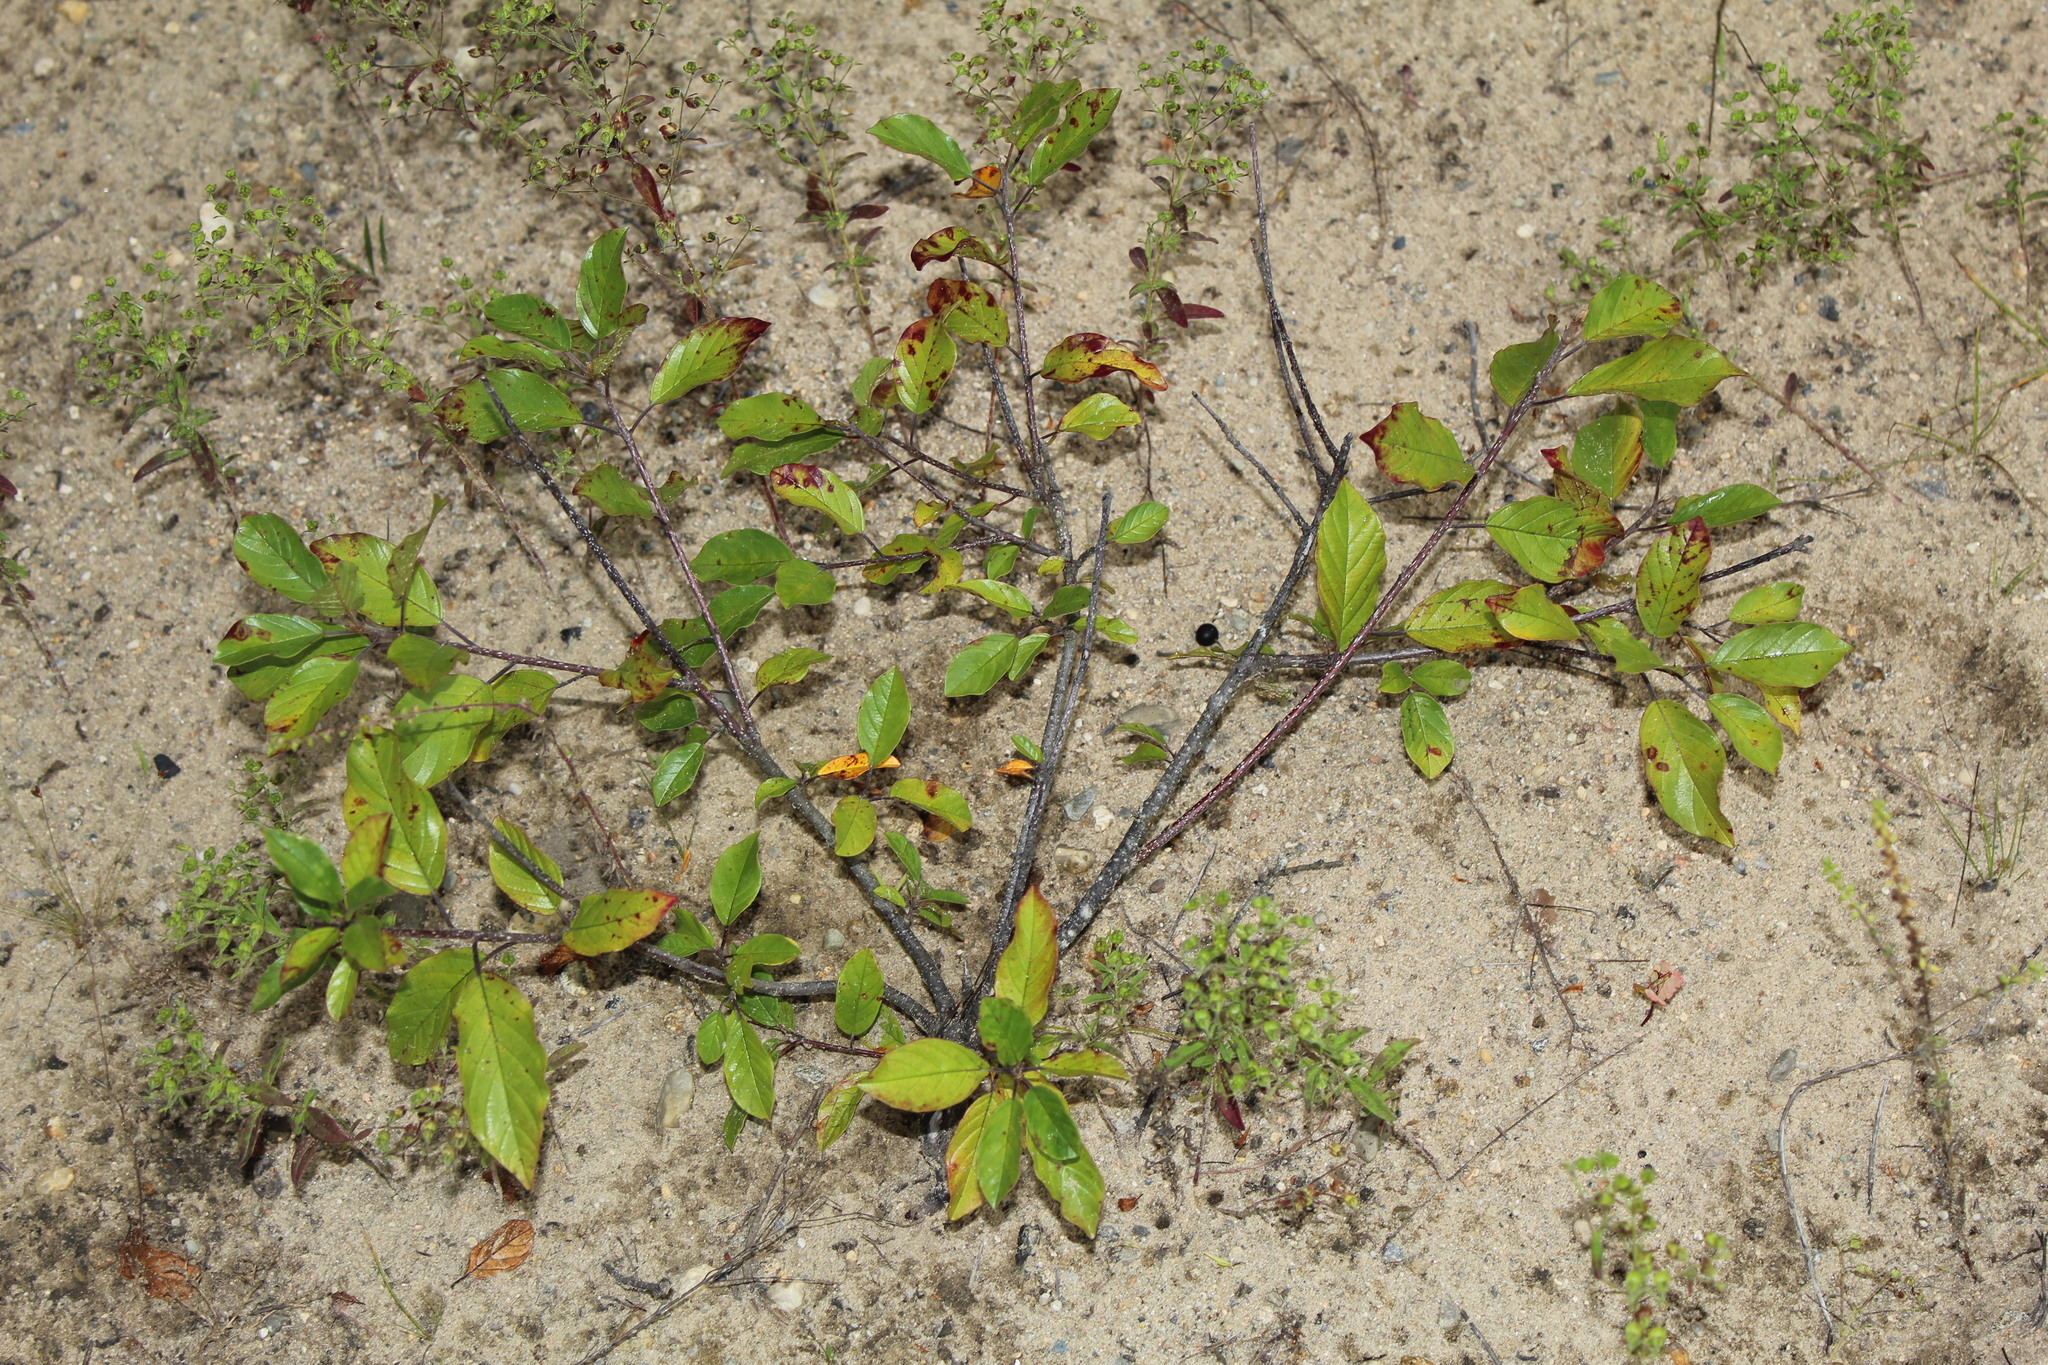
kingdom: Plantae
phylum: Tracheophyta
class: Magnoliopsida
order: Rosales
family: Rhamnaceae
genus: Frangula
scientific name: Frangula alnus
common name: Alder buckthorn
